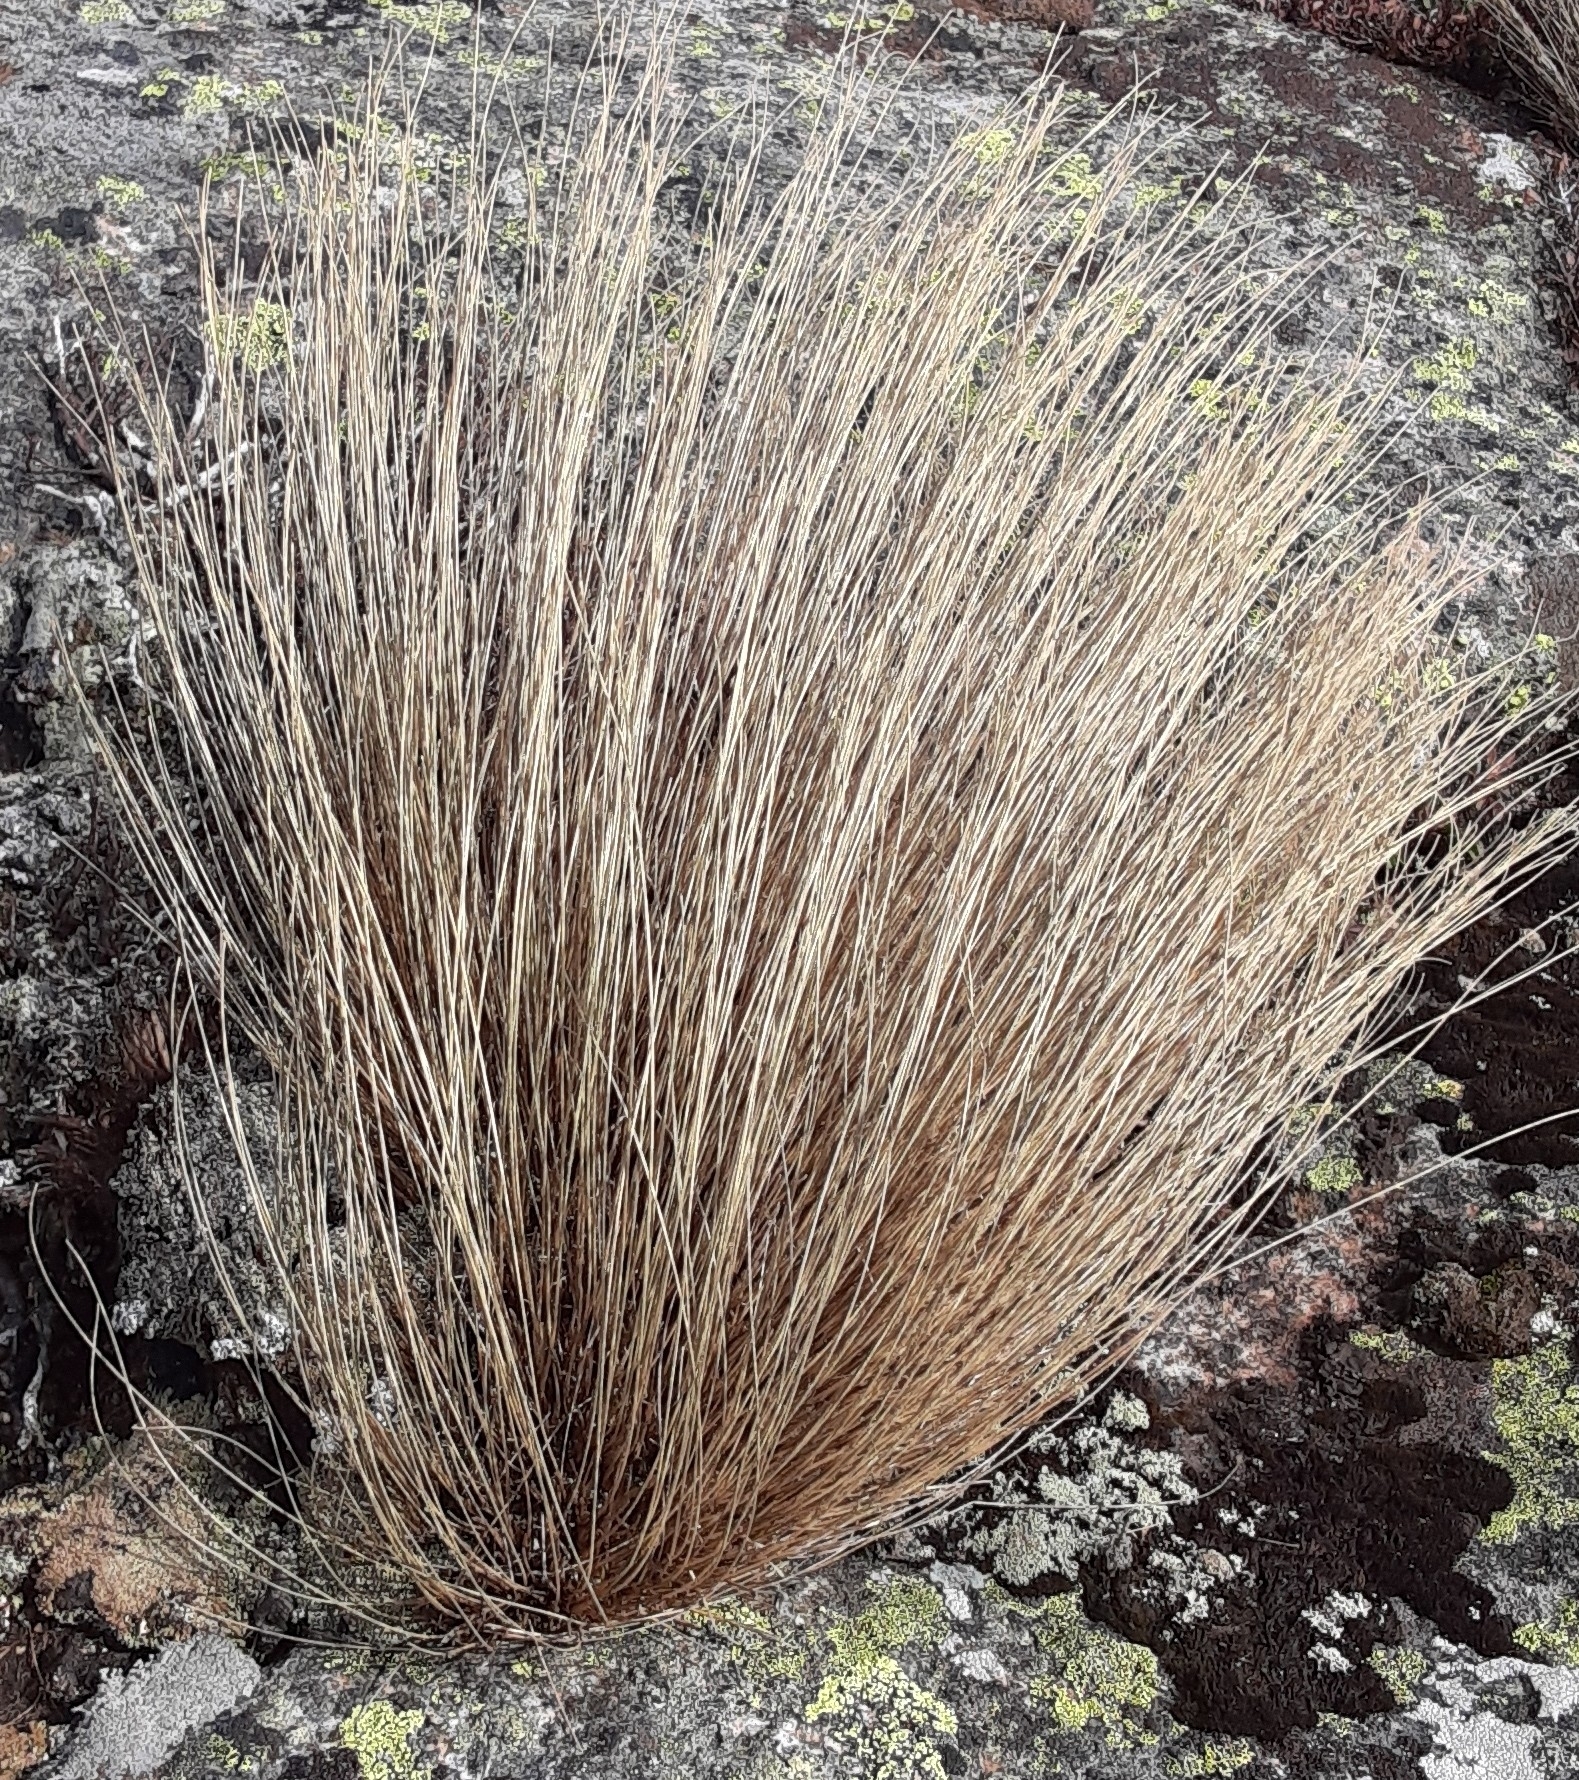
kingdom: Plantae
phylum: Tracheophyta
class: Liliopsida
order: Poales
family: Cyperaceae
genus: Trichophorum
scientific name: Trichophorum cespitosum
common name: Cespitose bulrush
